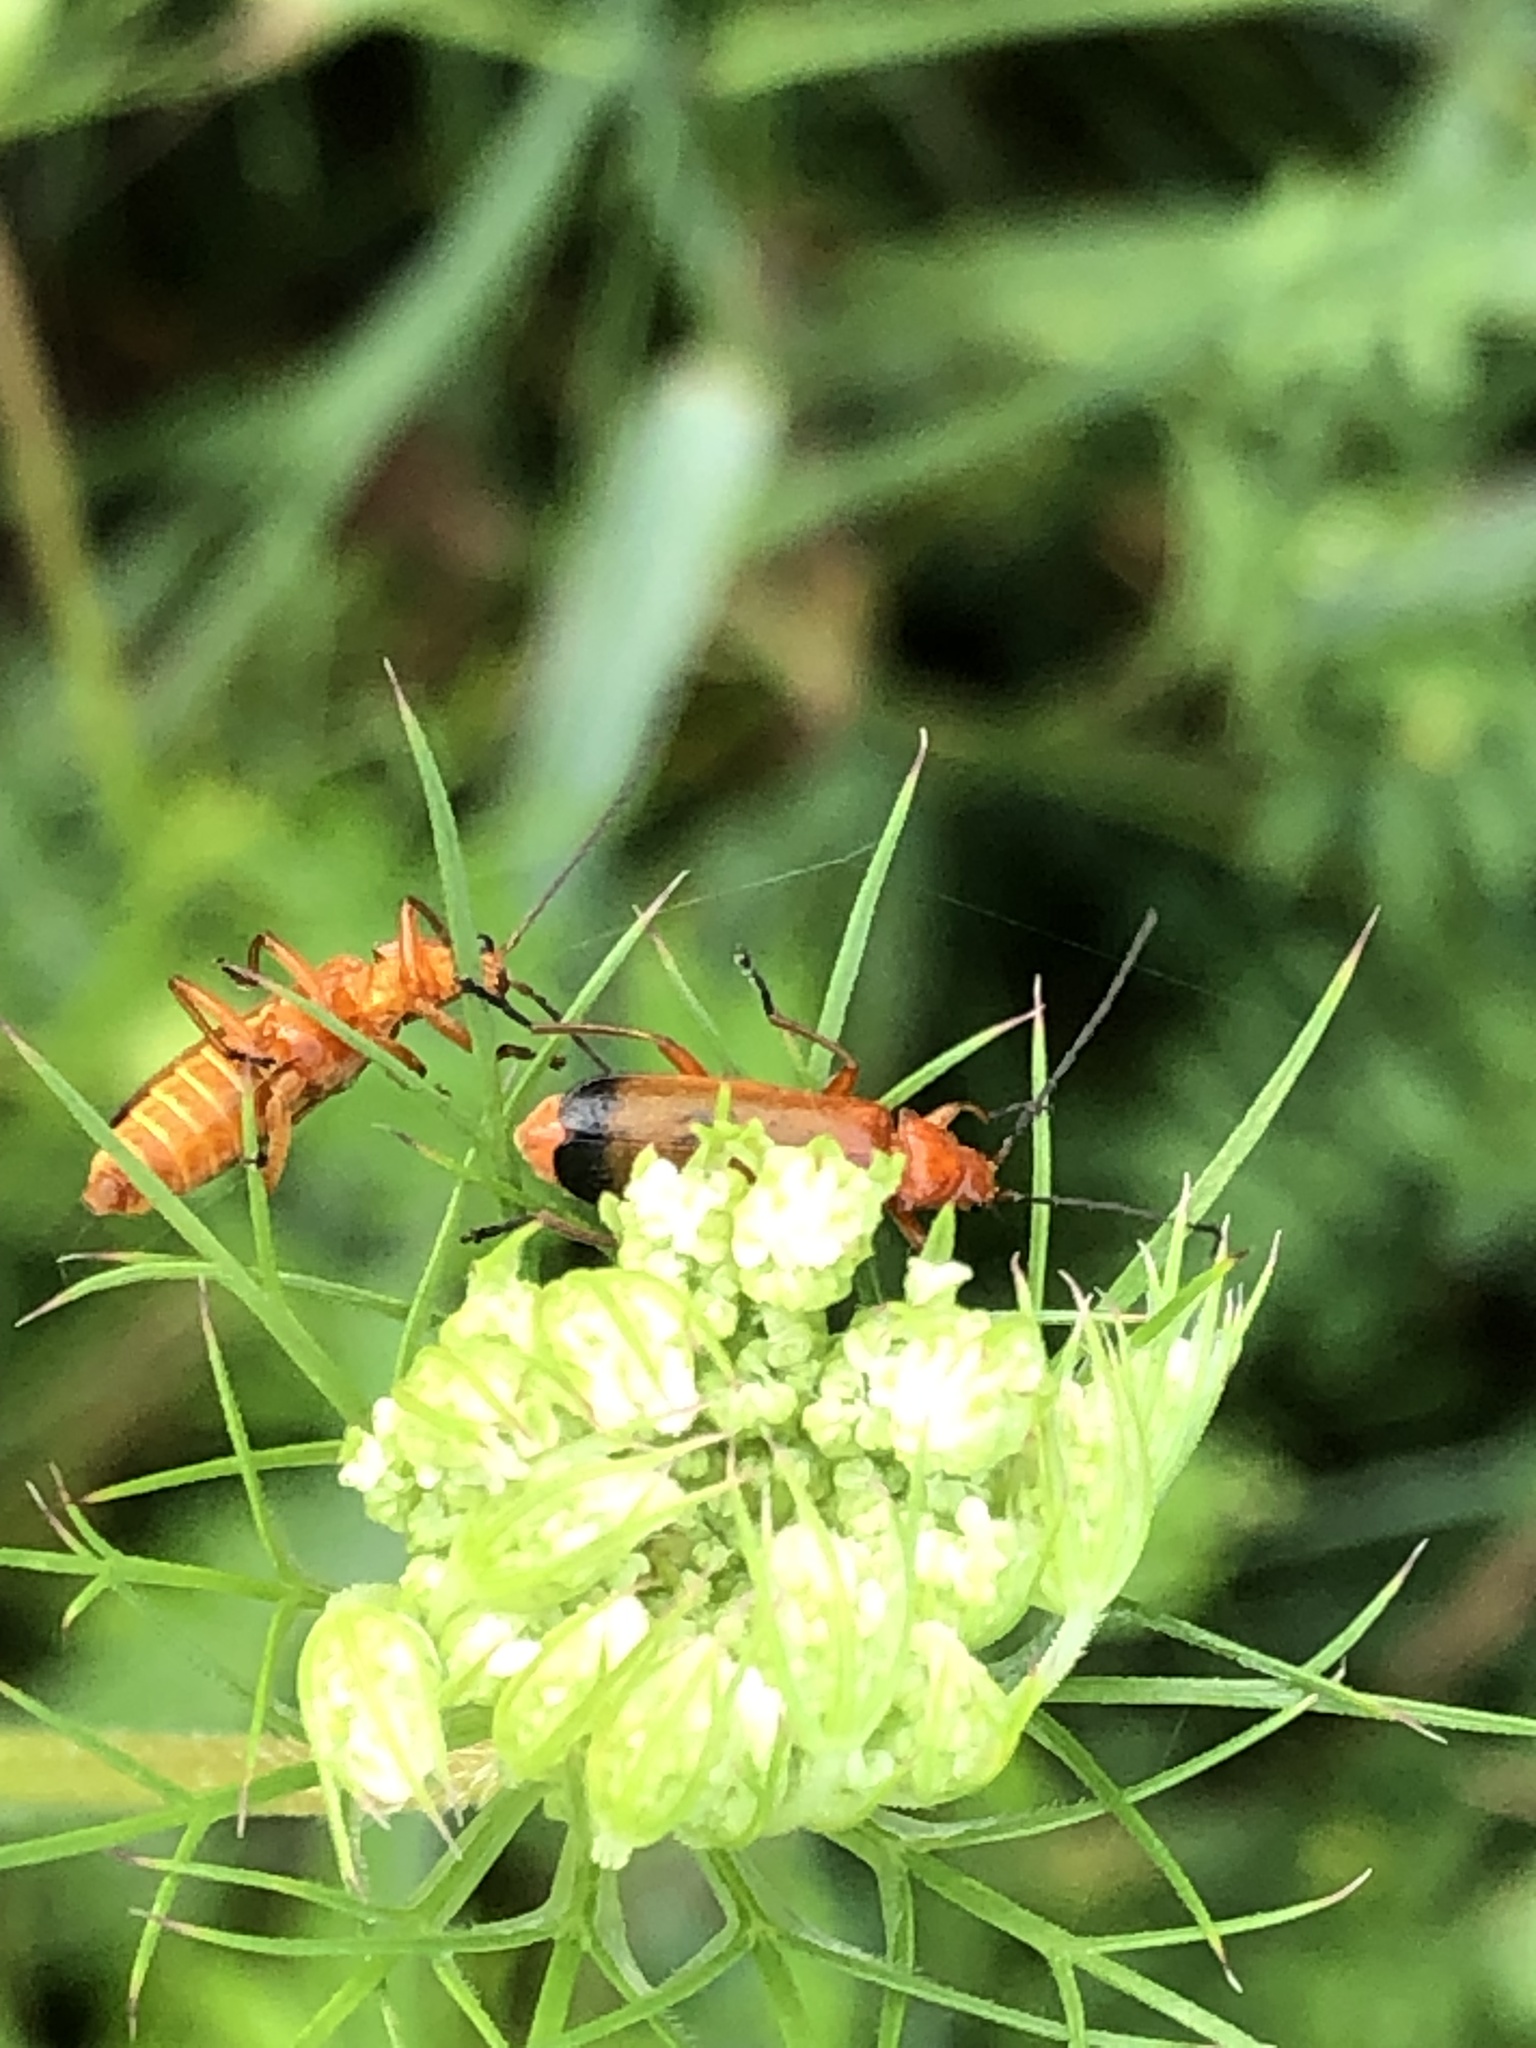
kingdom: Animalia
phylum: Arthropoda
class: Insecta
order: Coleoptera
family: Cantharidae
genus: Rhagonycha
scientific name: Rhagonycha fulva
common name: Common red soldier beetle
